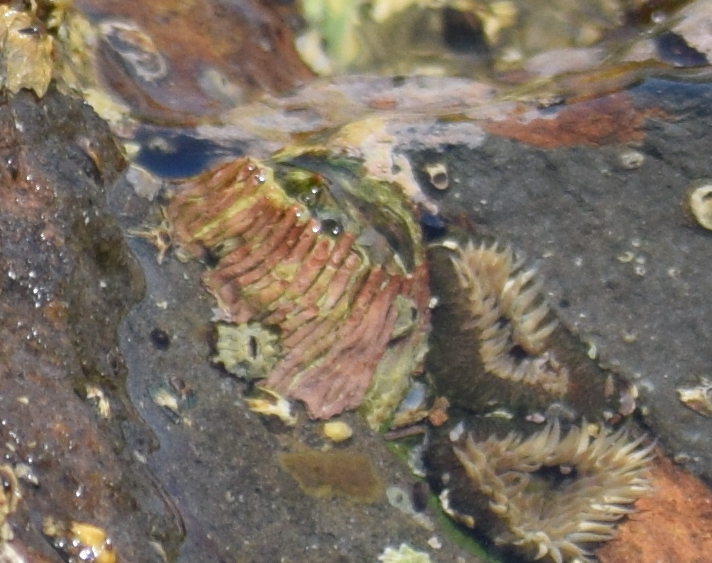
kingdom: Animalia
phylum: Arthropoda
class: Maxillopoda
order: Sessilia
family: Tetraclitidae
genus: Tetraclita
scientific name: Tetraclita rubescens
